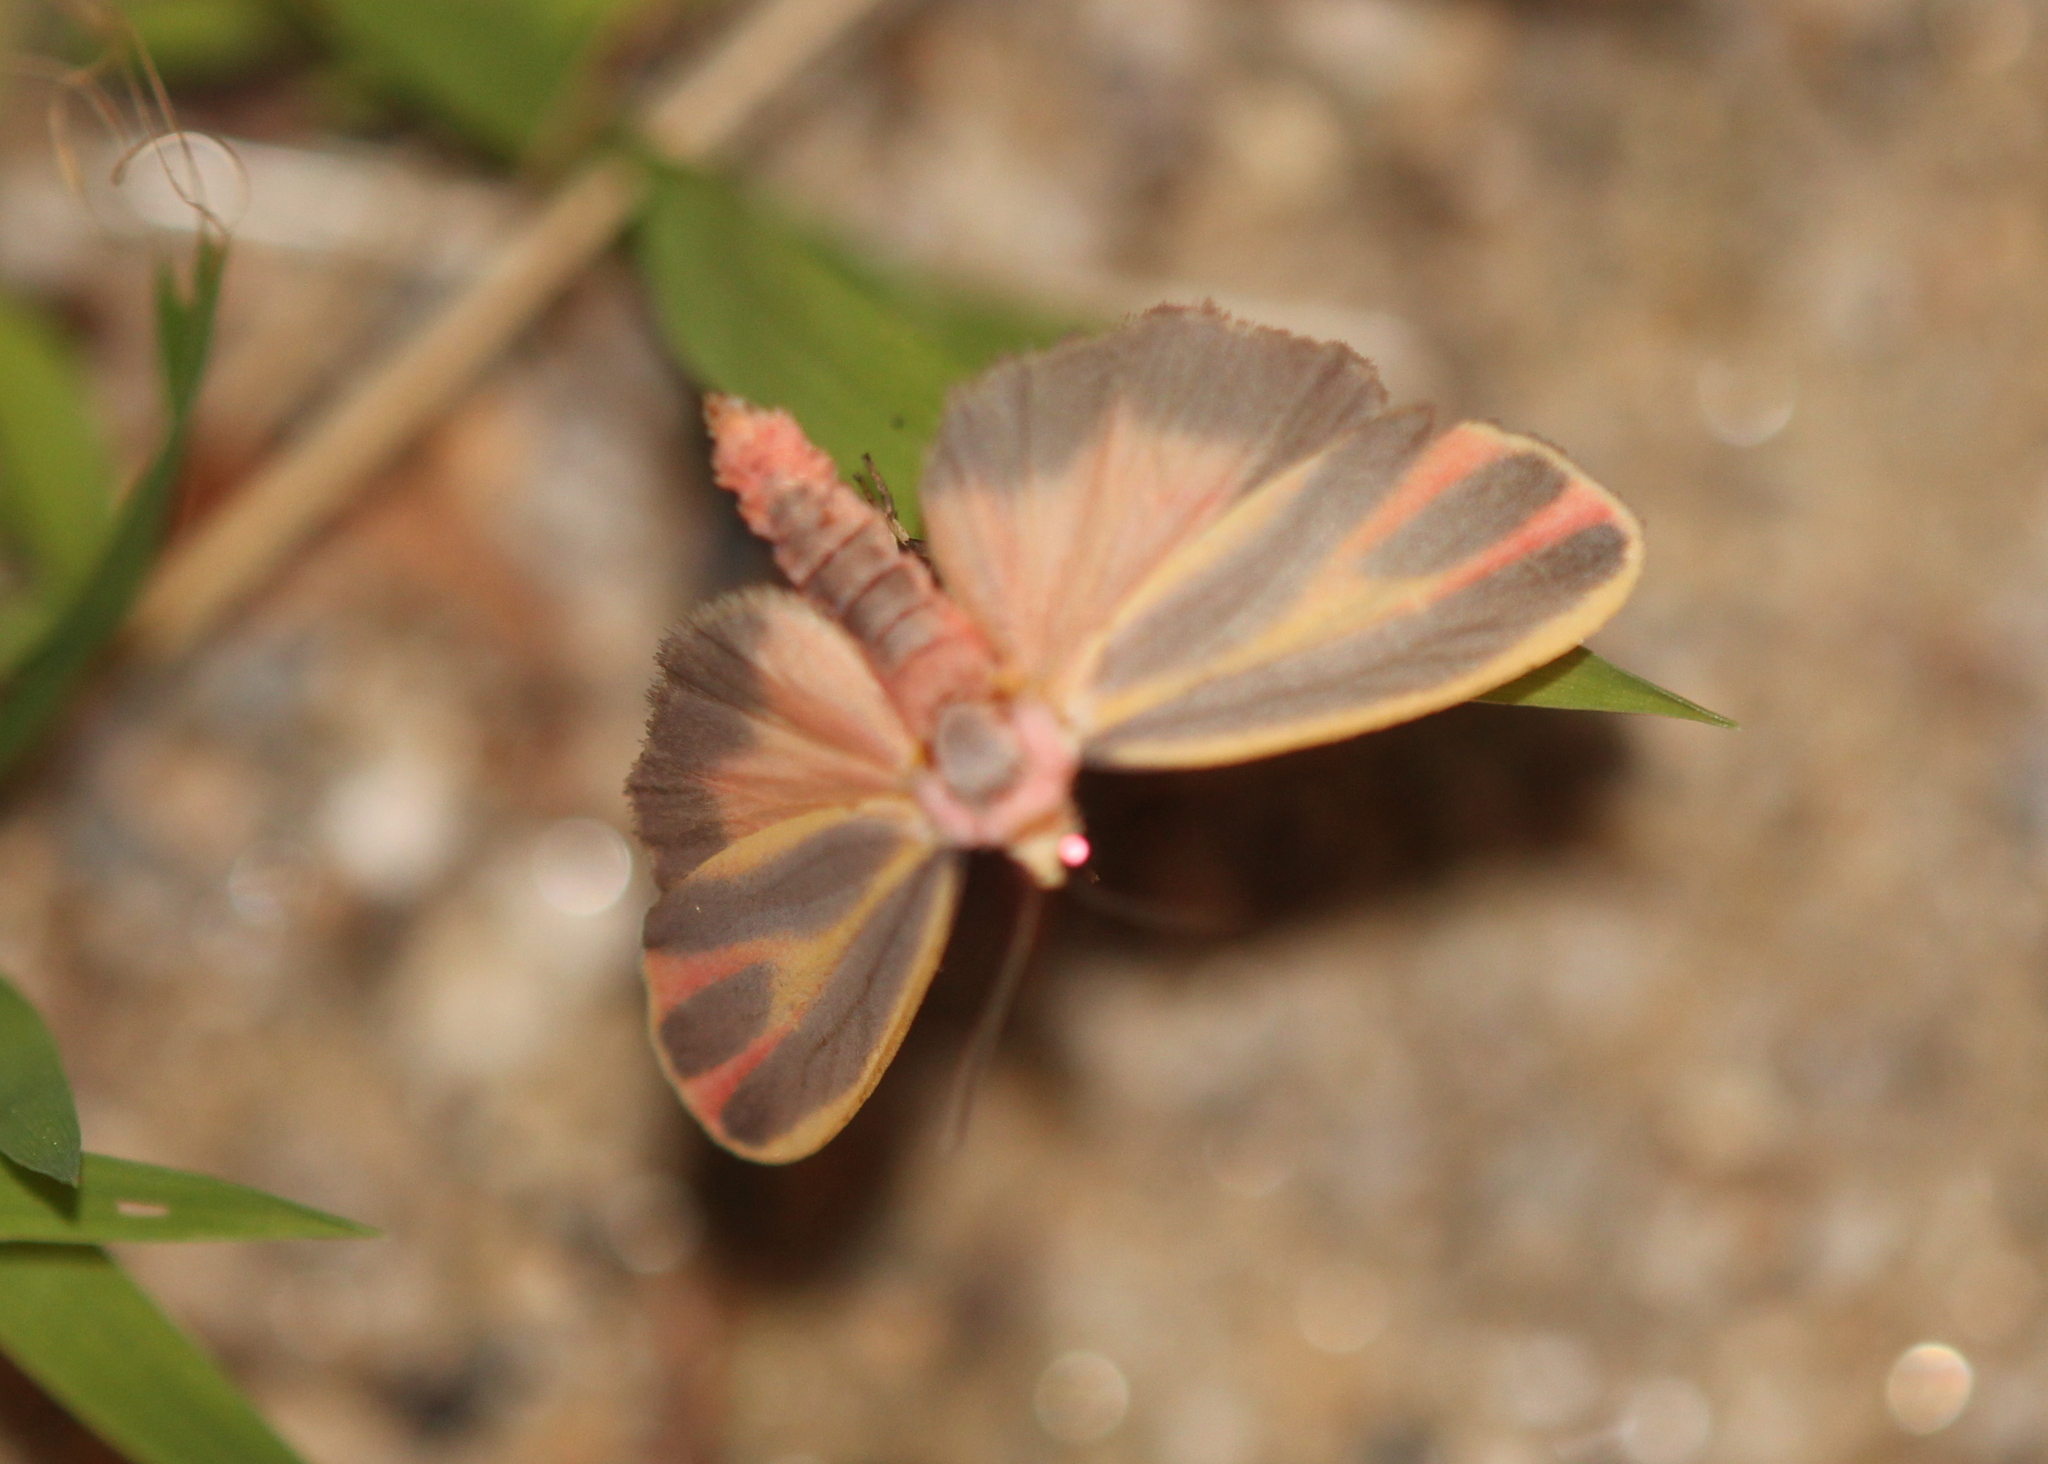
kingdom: Animalia
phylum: Arthropoda
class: Insecta
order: Lepidoptera
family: Erebidae
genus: Hypoprepia
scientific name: Hypoprepia fucosa
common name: Painted lichen moth
